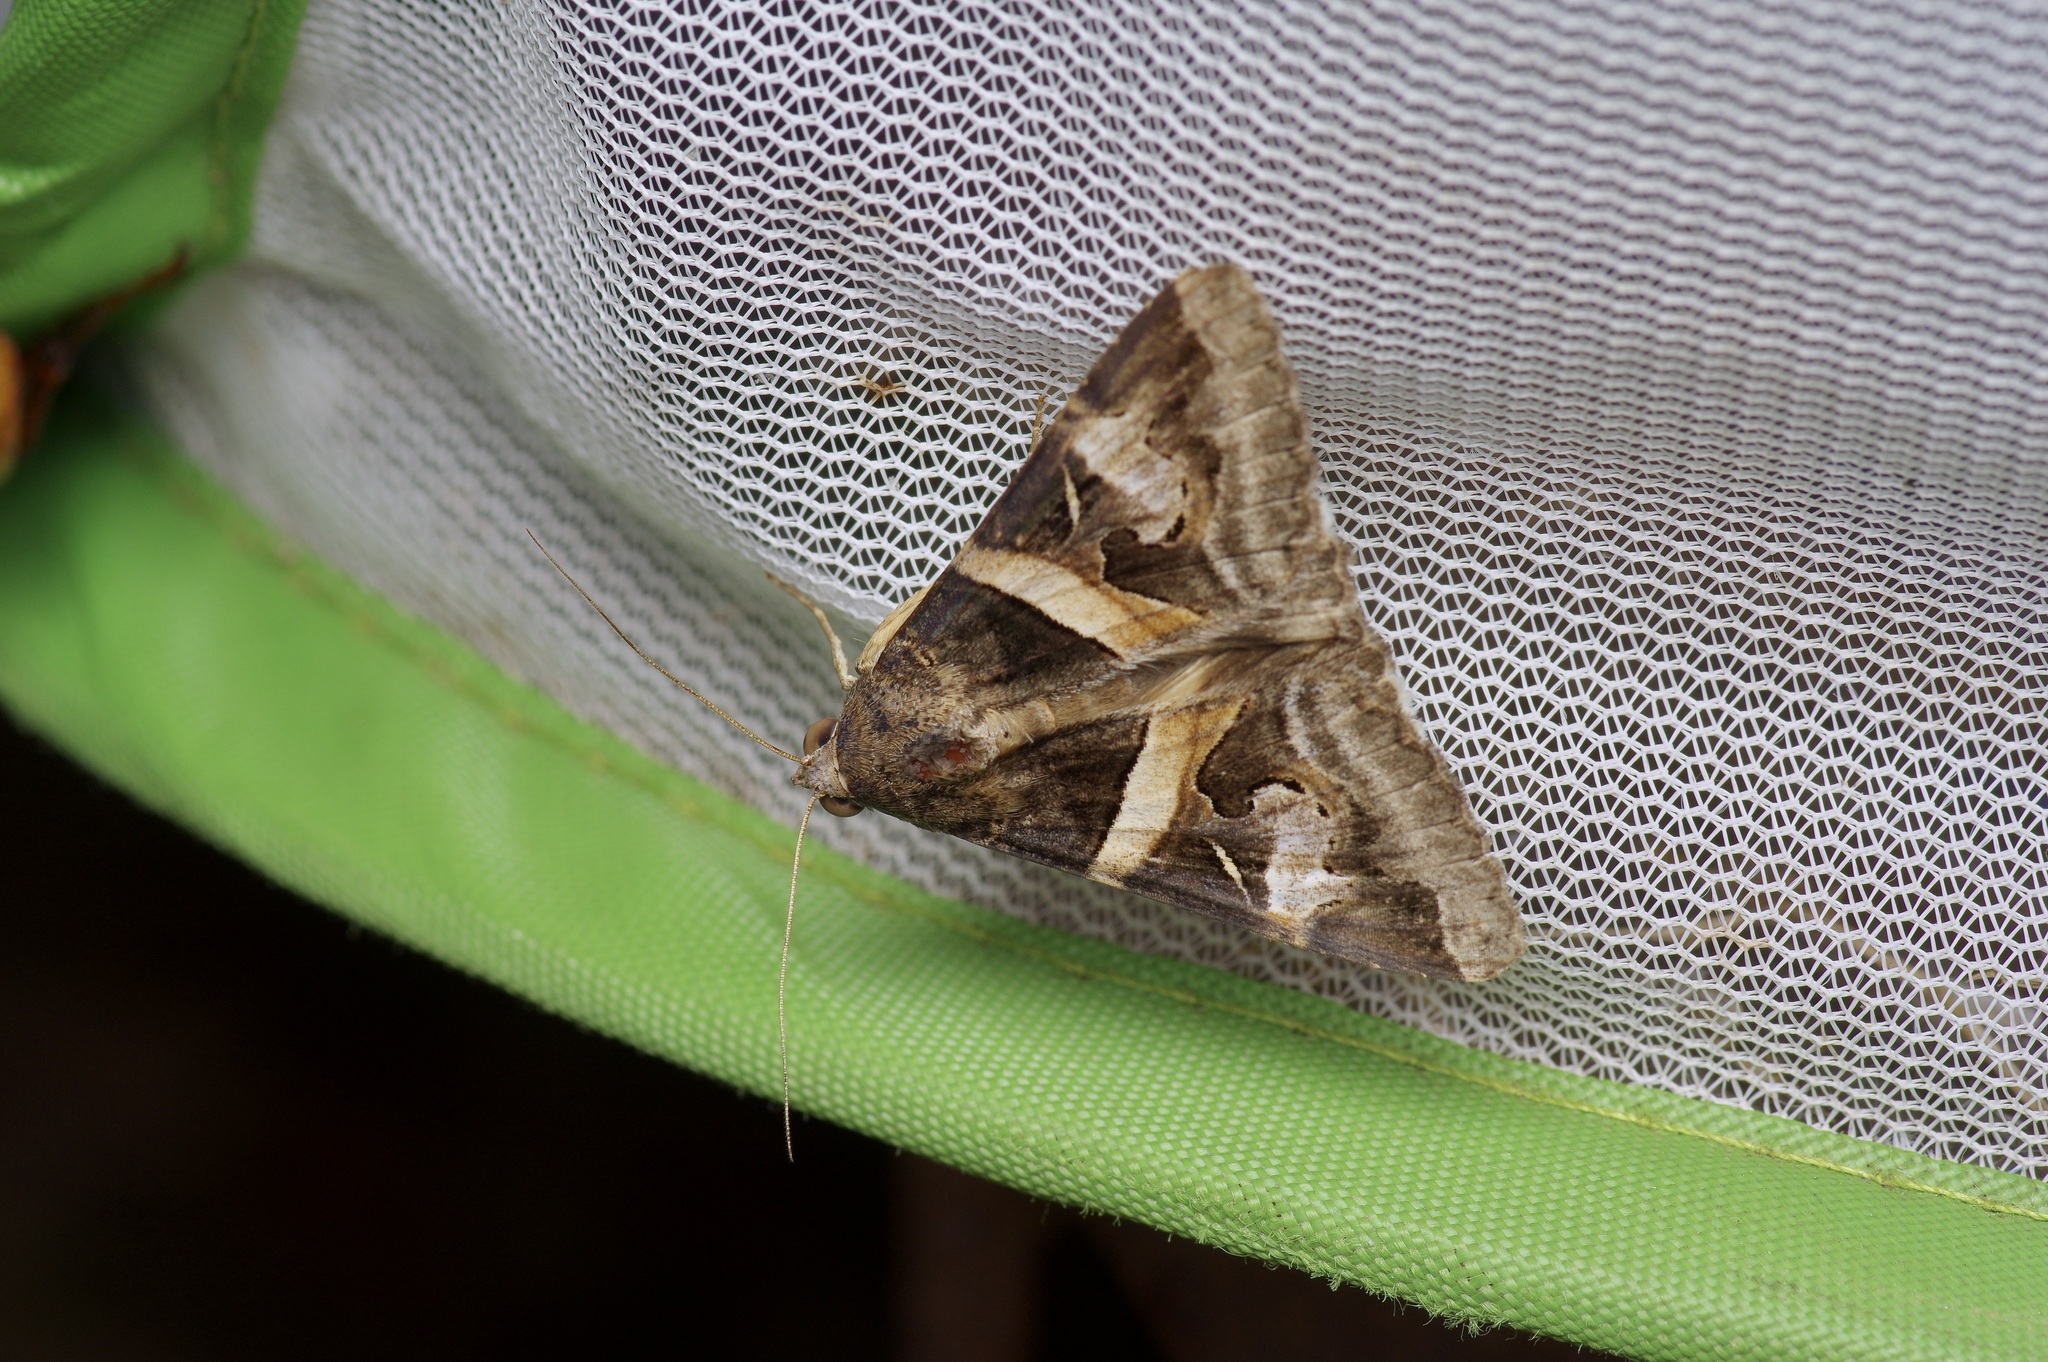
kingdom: Animalia
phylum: Arthropoda
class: Insecta
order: Lepidoptera
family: Erebidae
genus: Melipotis
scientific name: Melipotis indomita
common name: Moth
